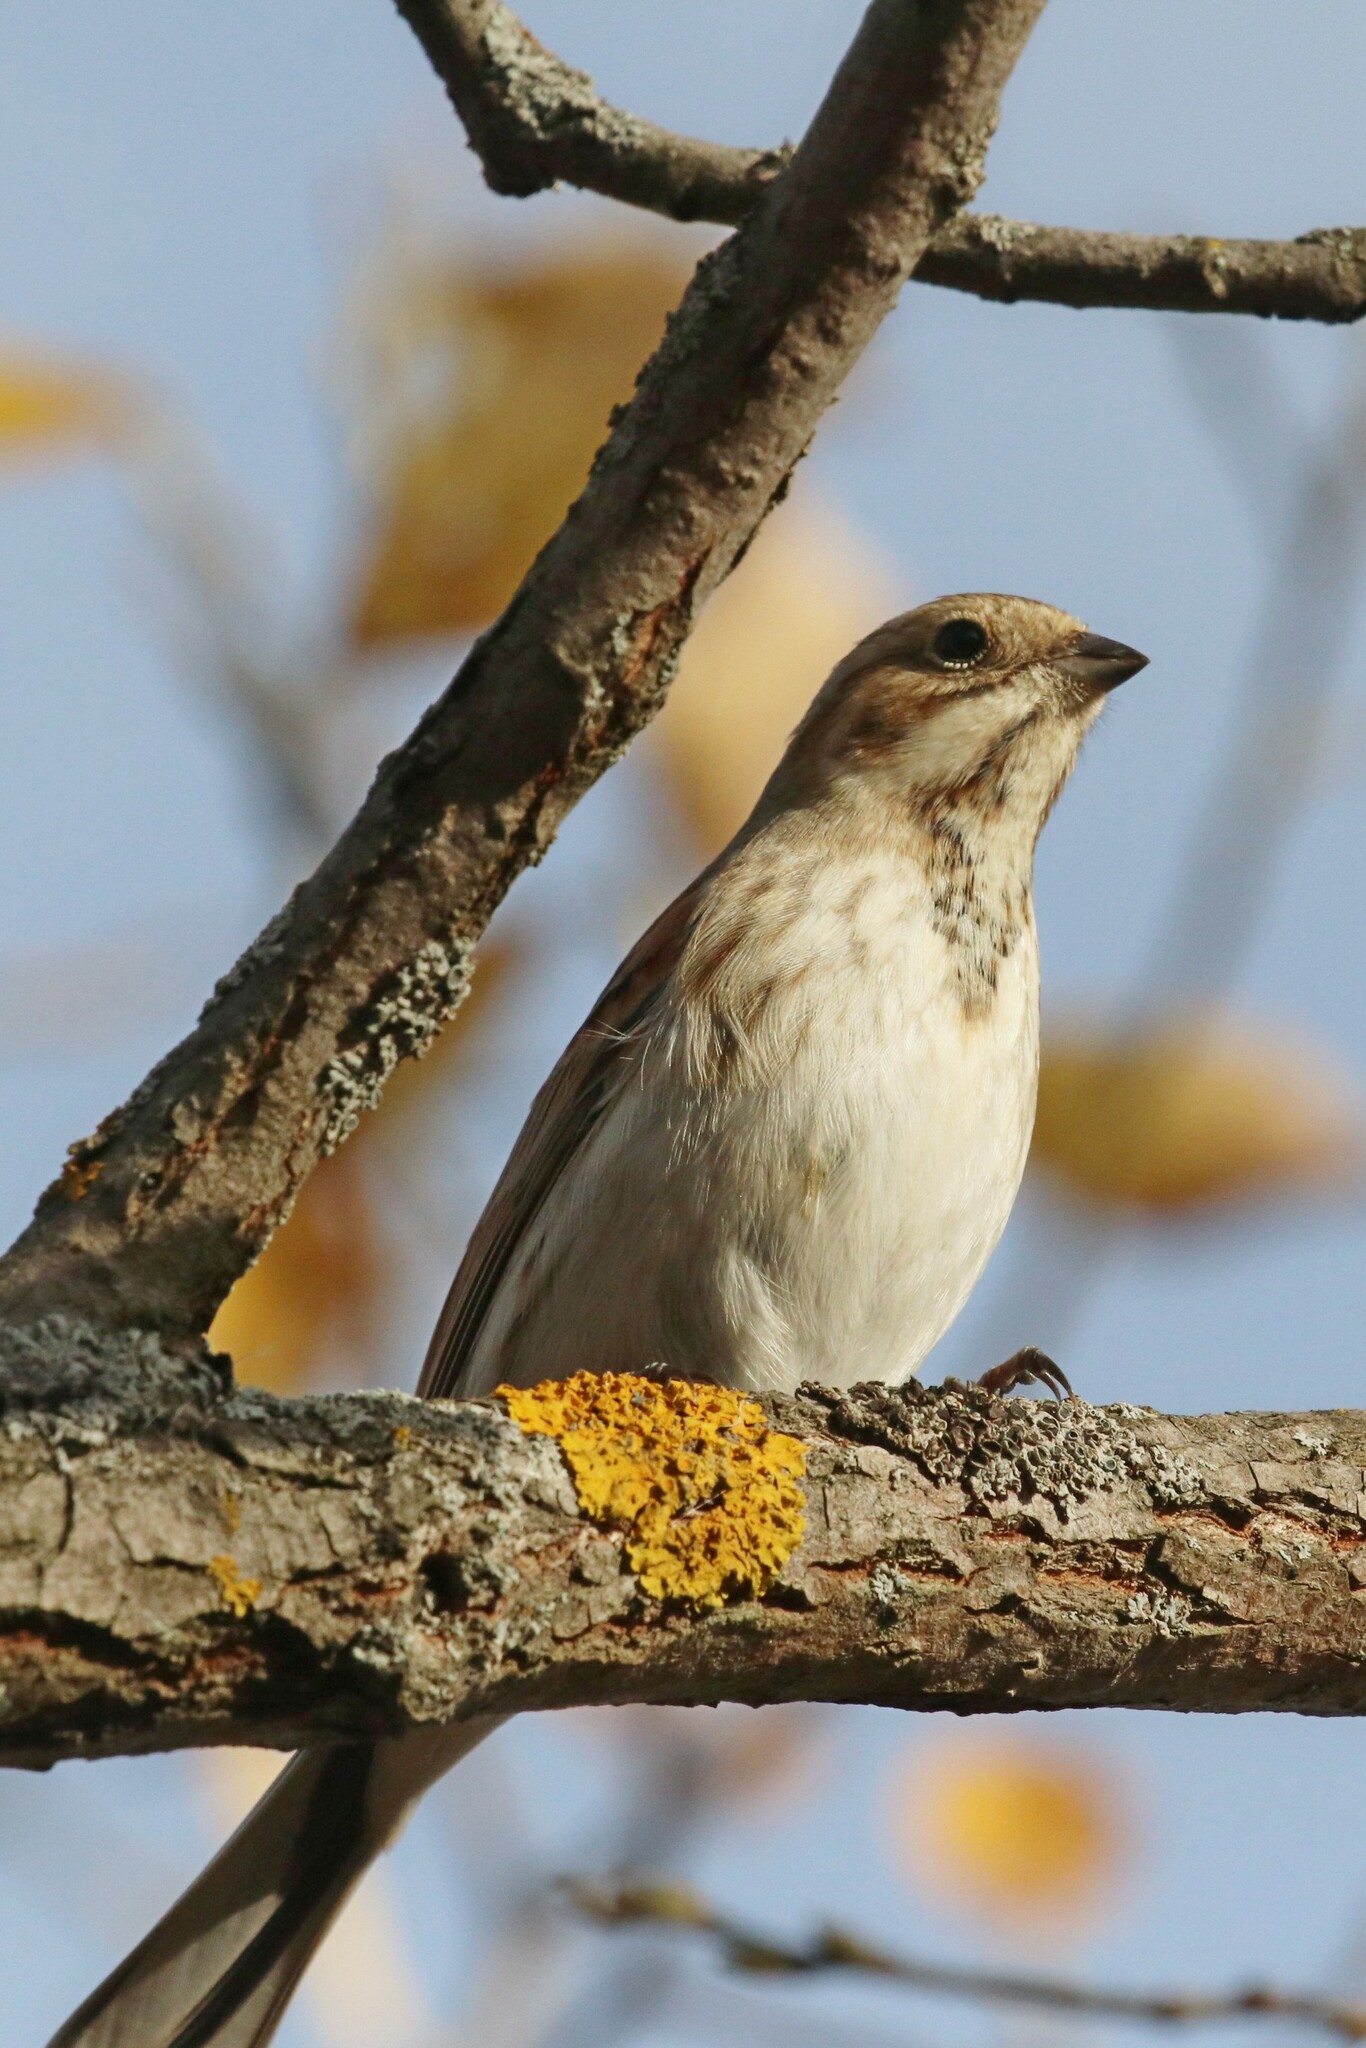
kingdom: Animalia
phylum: Chordata
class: Aves
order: Passeriformes
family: Emberizidae
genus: Emberiza
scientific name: Emberiza schoeniclus
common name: Reed bunting
